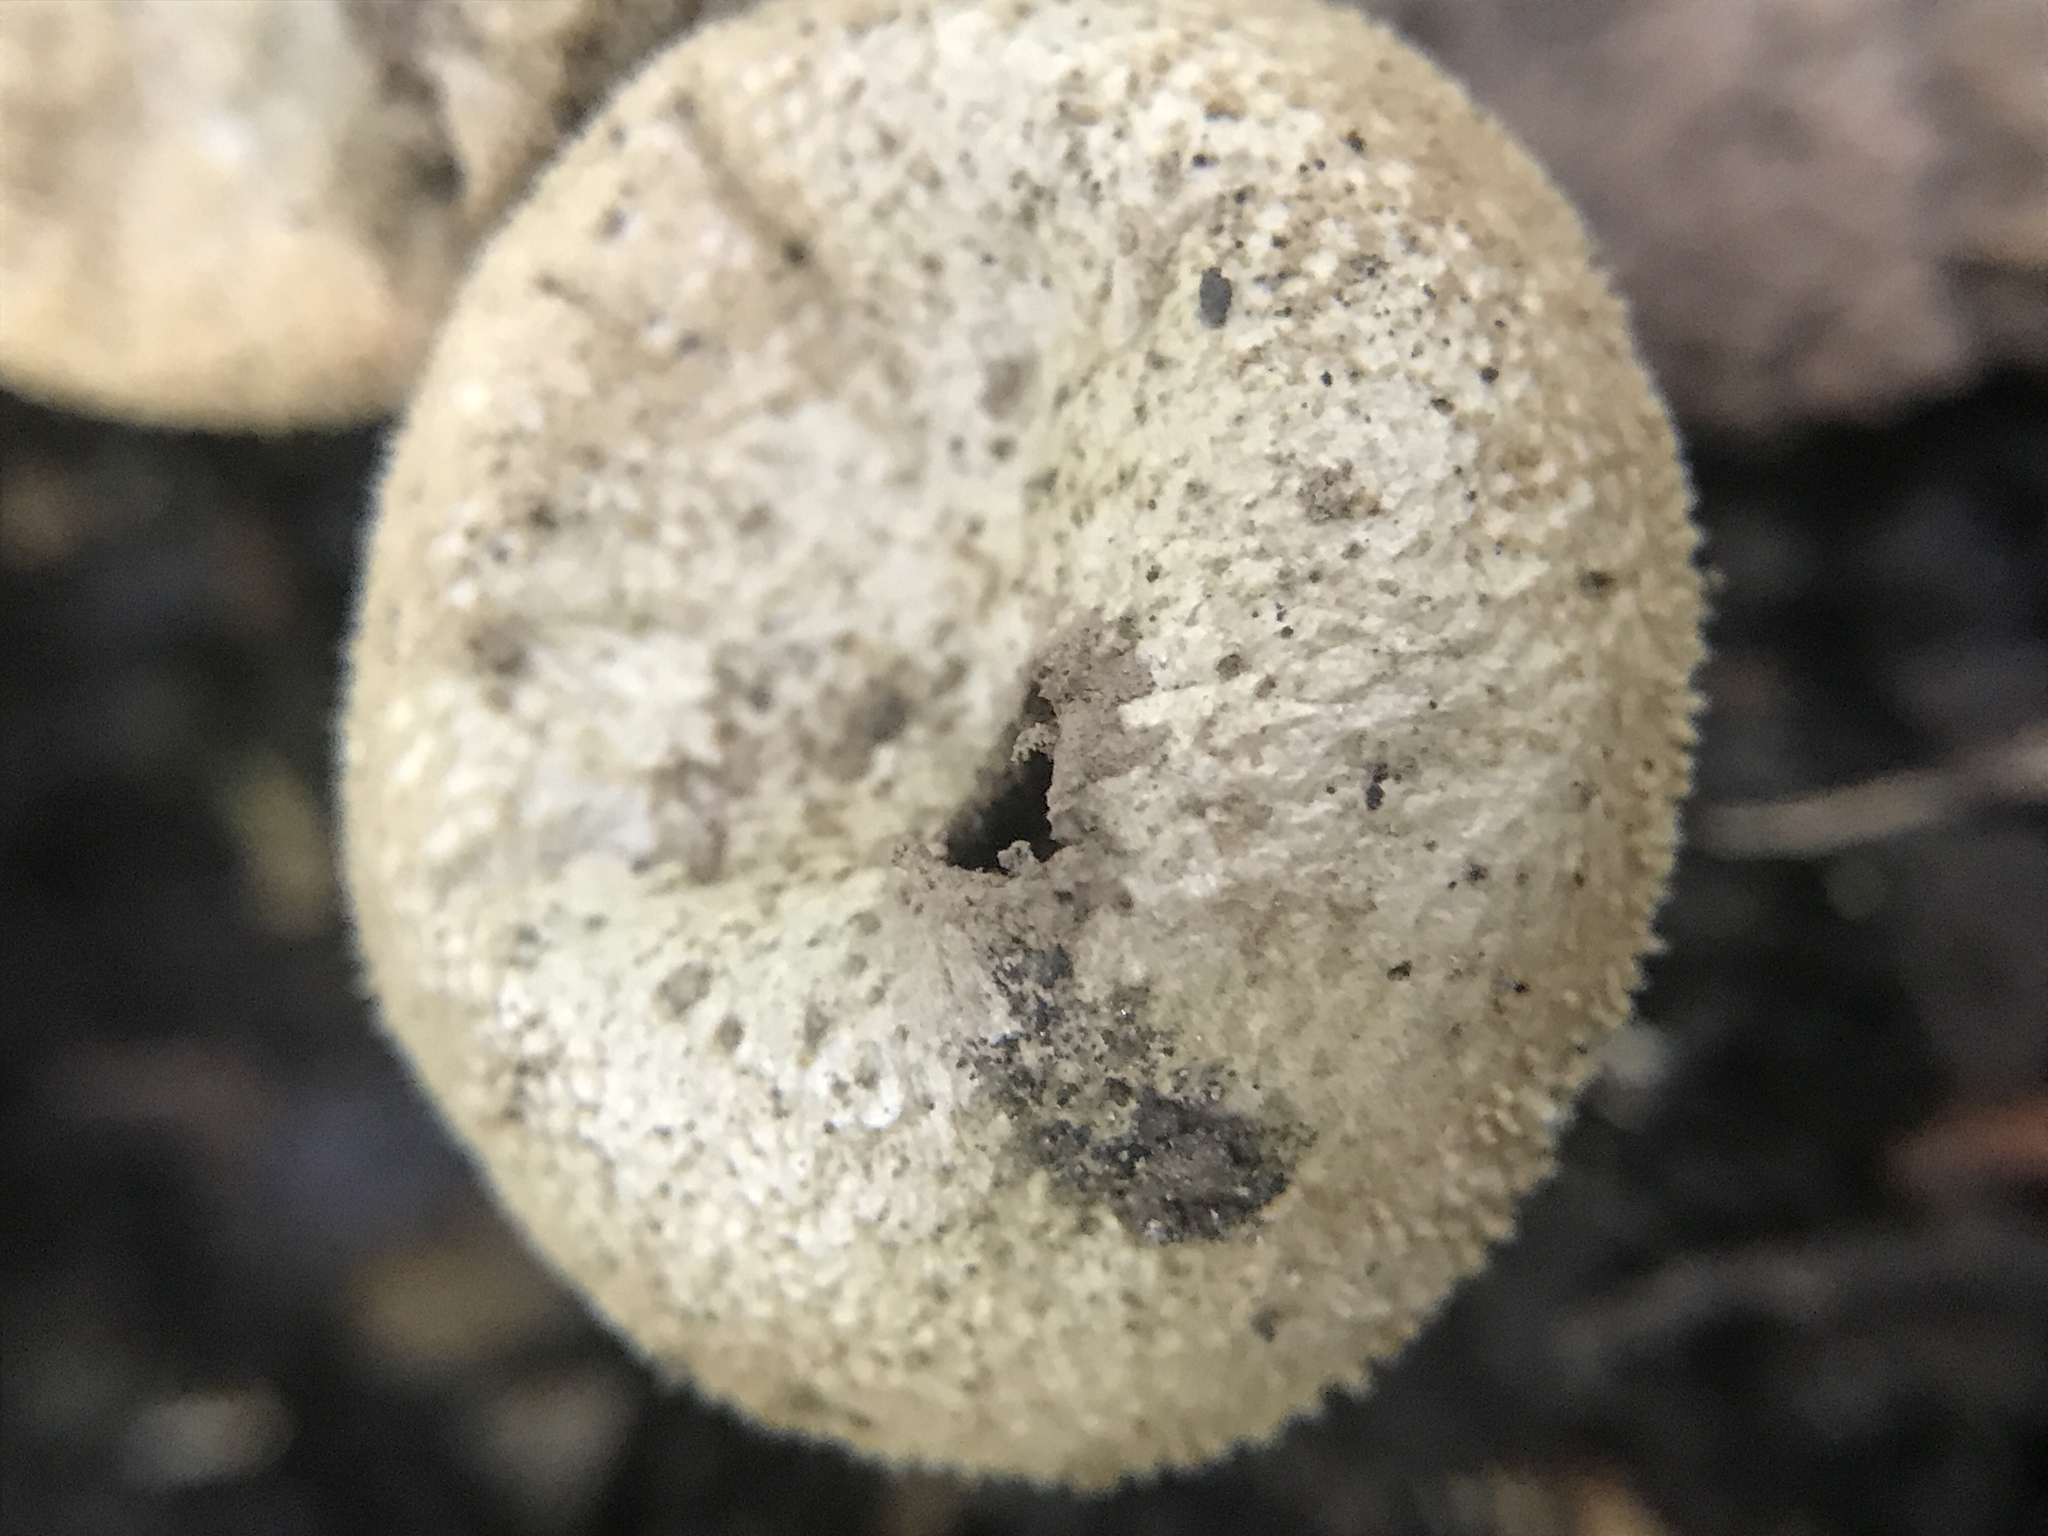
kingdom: Fungi
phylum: Basidiomycota
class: Agaricomycetes
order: Agaricales
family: Lycoperdaceae
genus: Apioperdon
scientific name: Apioperdon pyriforme
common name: Pear-shaped puffball
